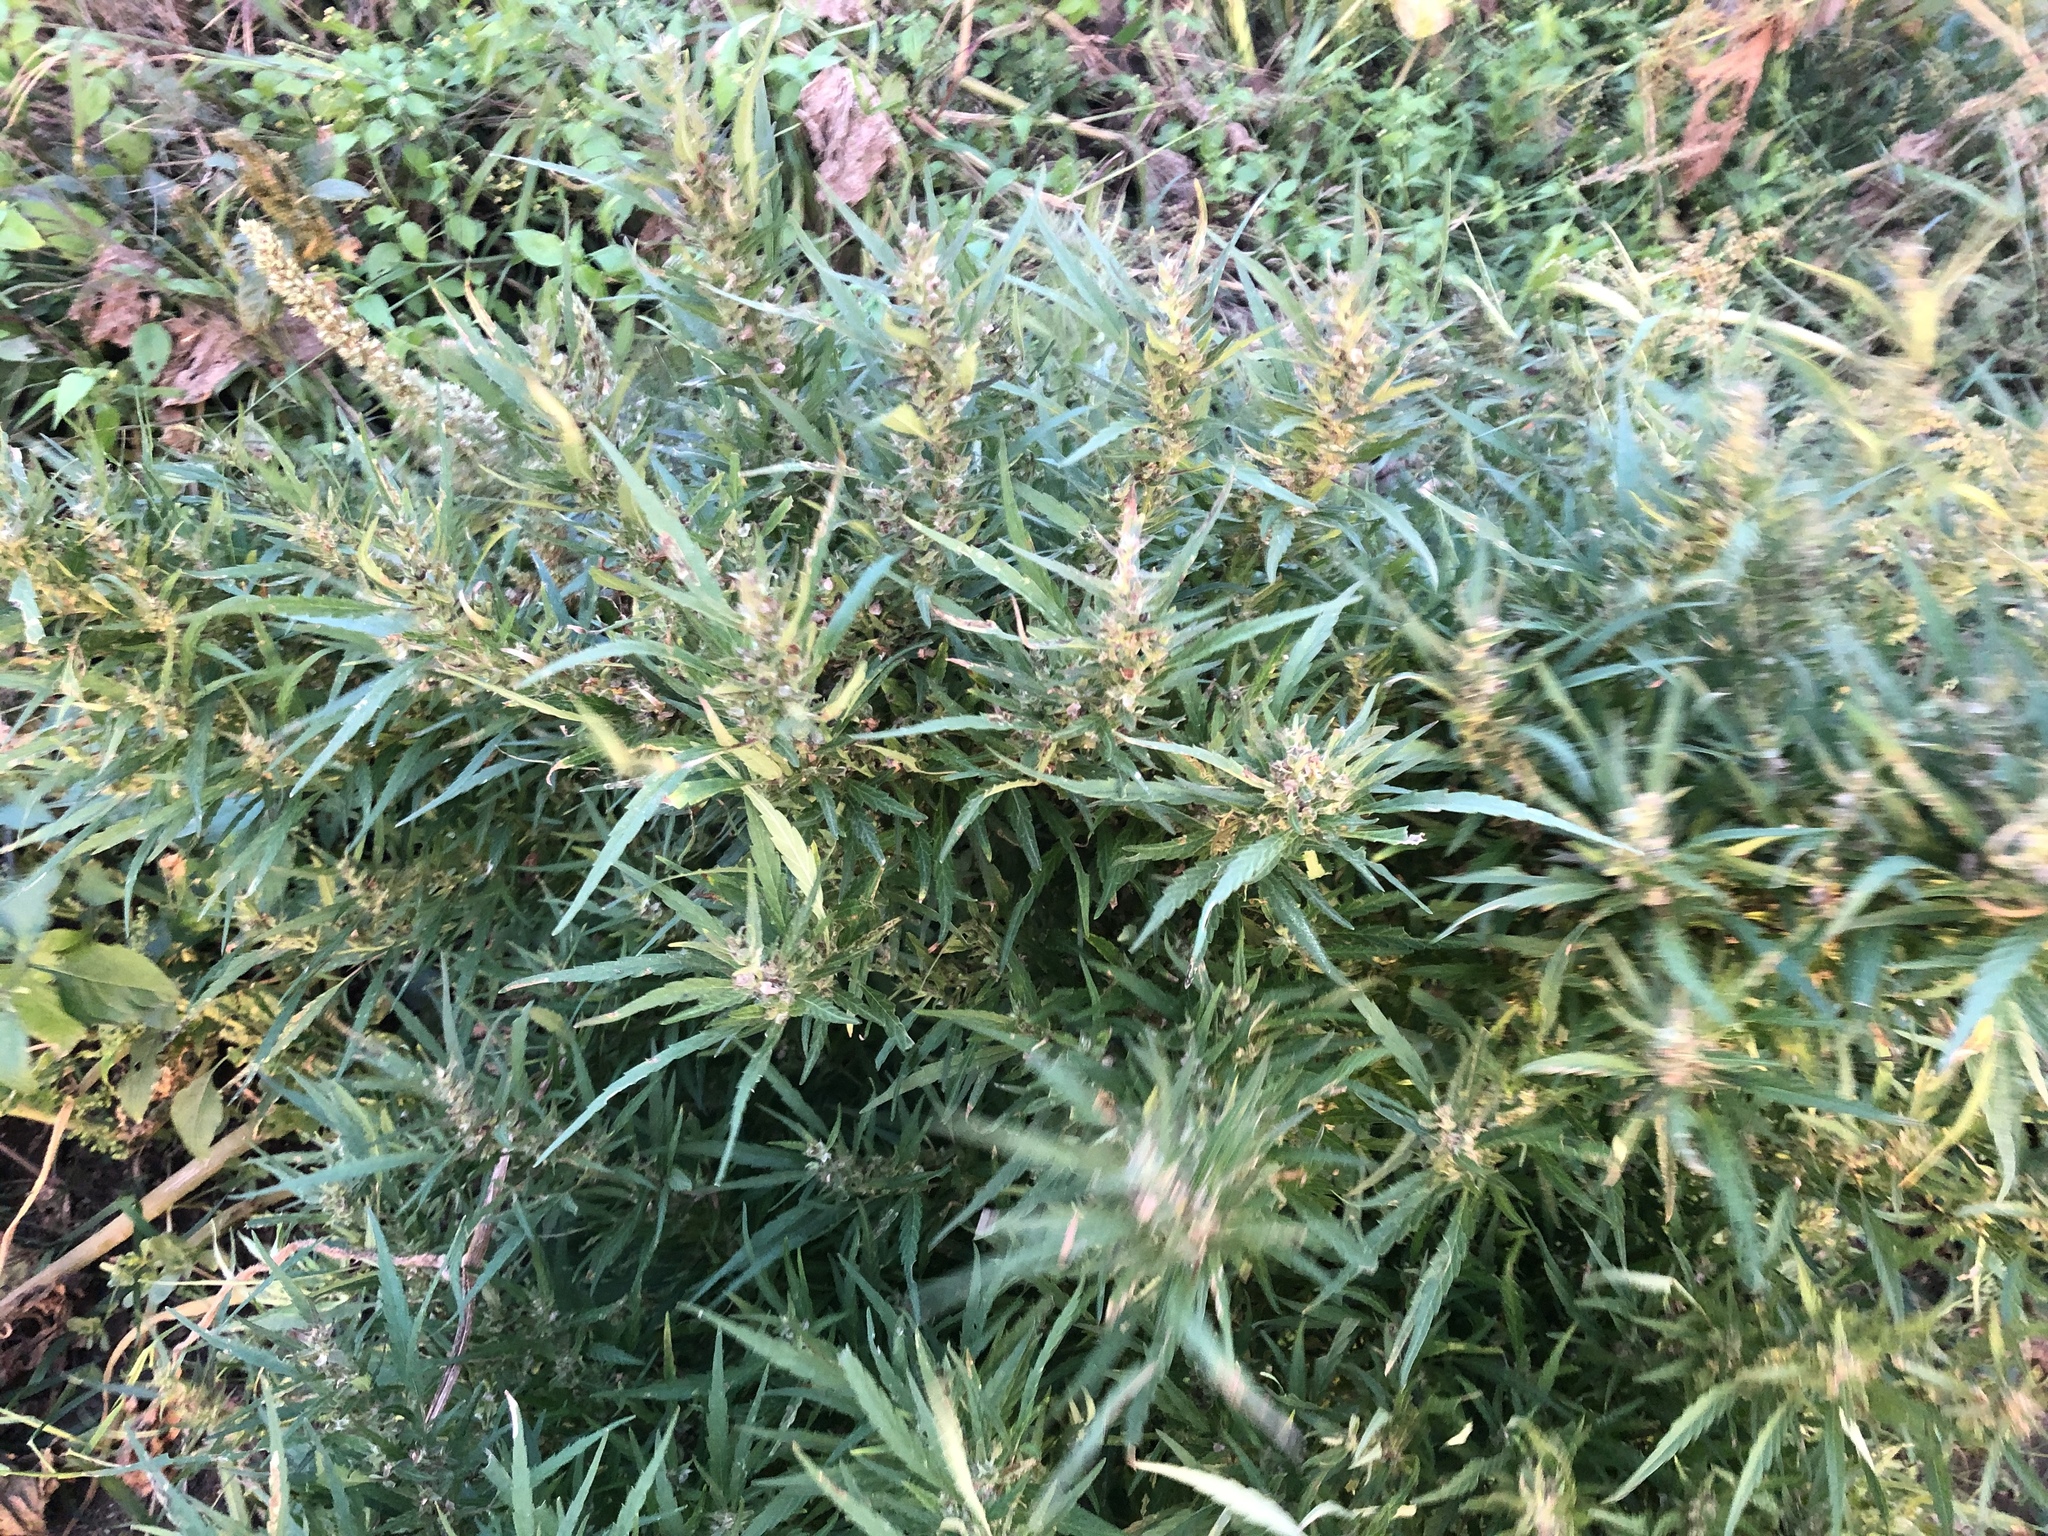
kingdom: Plantae
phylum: Tracheophyta
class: Magnoliopsida
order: Rosales
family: Cannabaceae
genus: Cannabis
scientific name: Cannabis sativa
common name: Hemp
